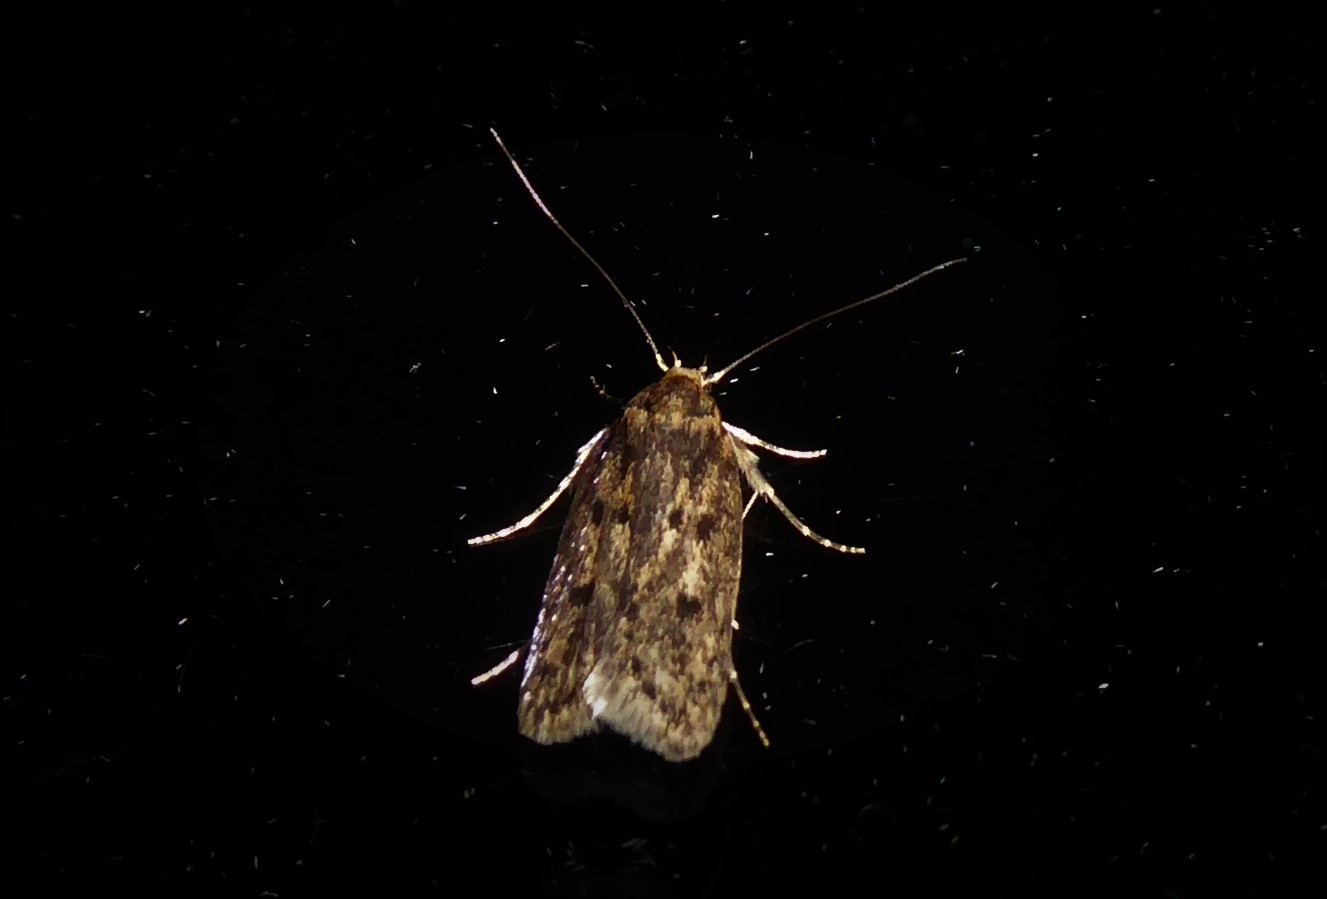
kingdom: Animalia
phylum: Arthropoda
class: Insecta
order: Lepidoptera
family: Oecophoridae
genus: Hofmannophila
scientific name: Hofmannophila pseudospretella
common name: Brown house moth
